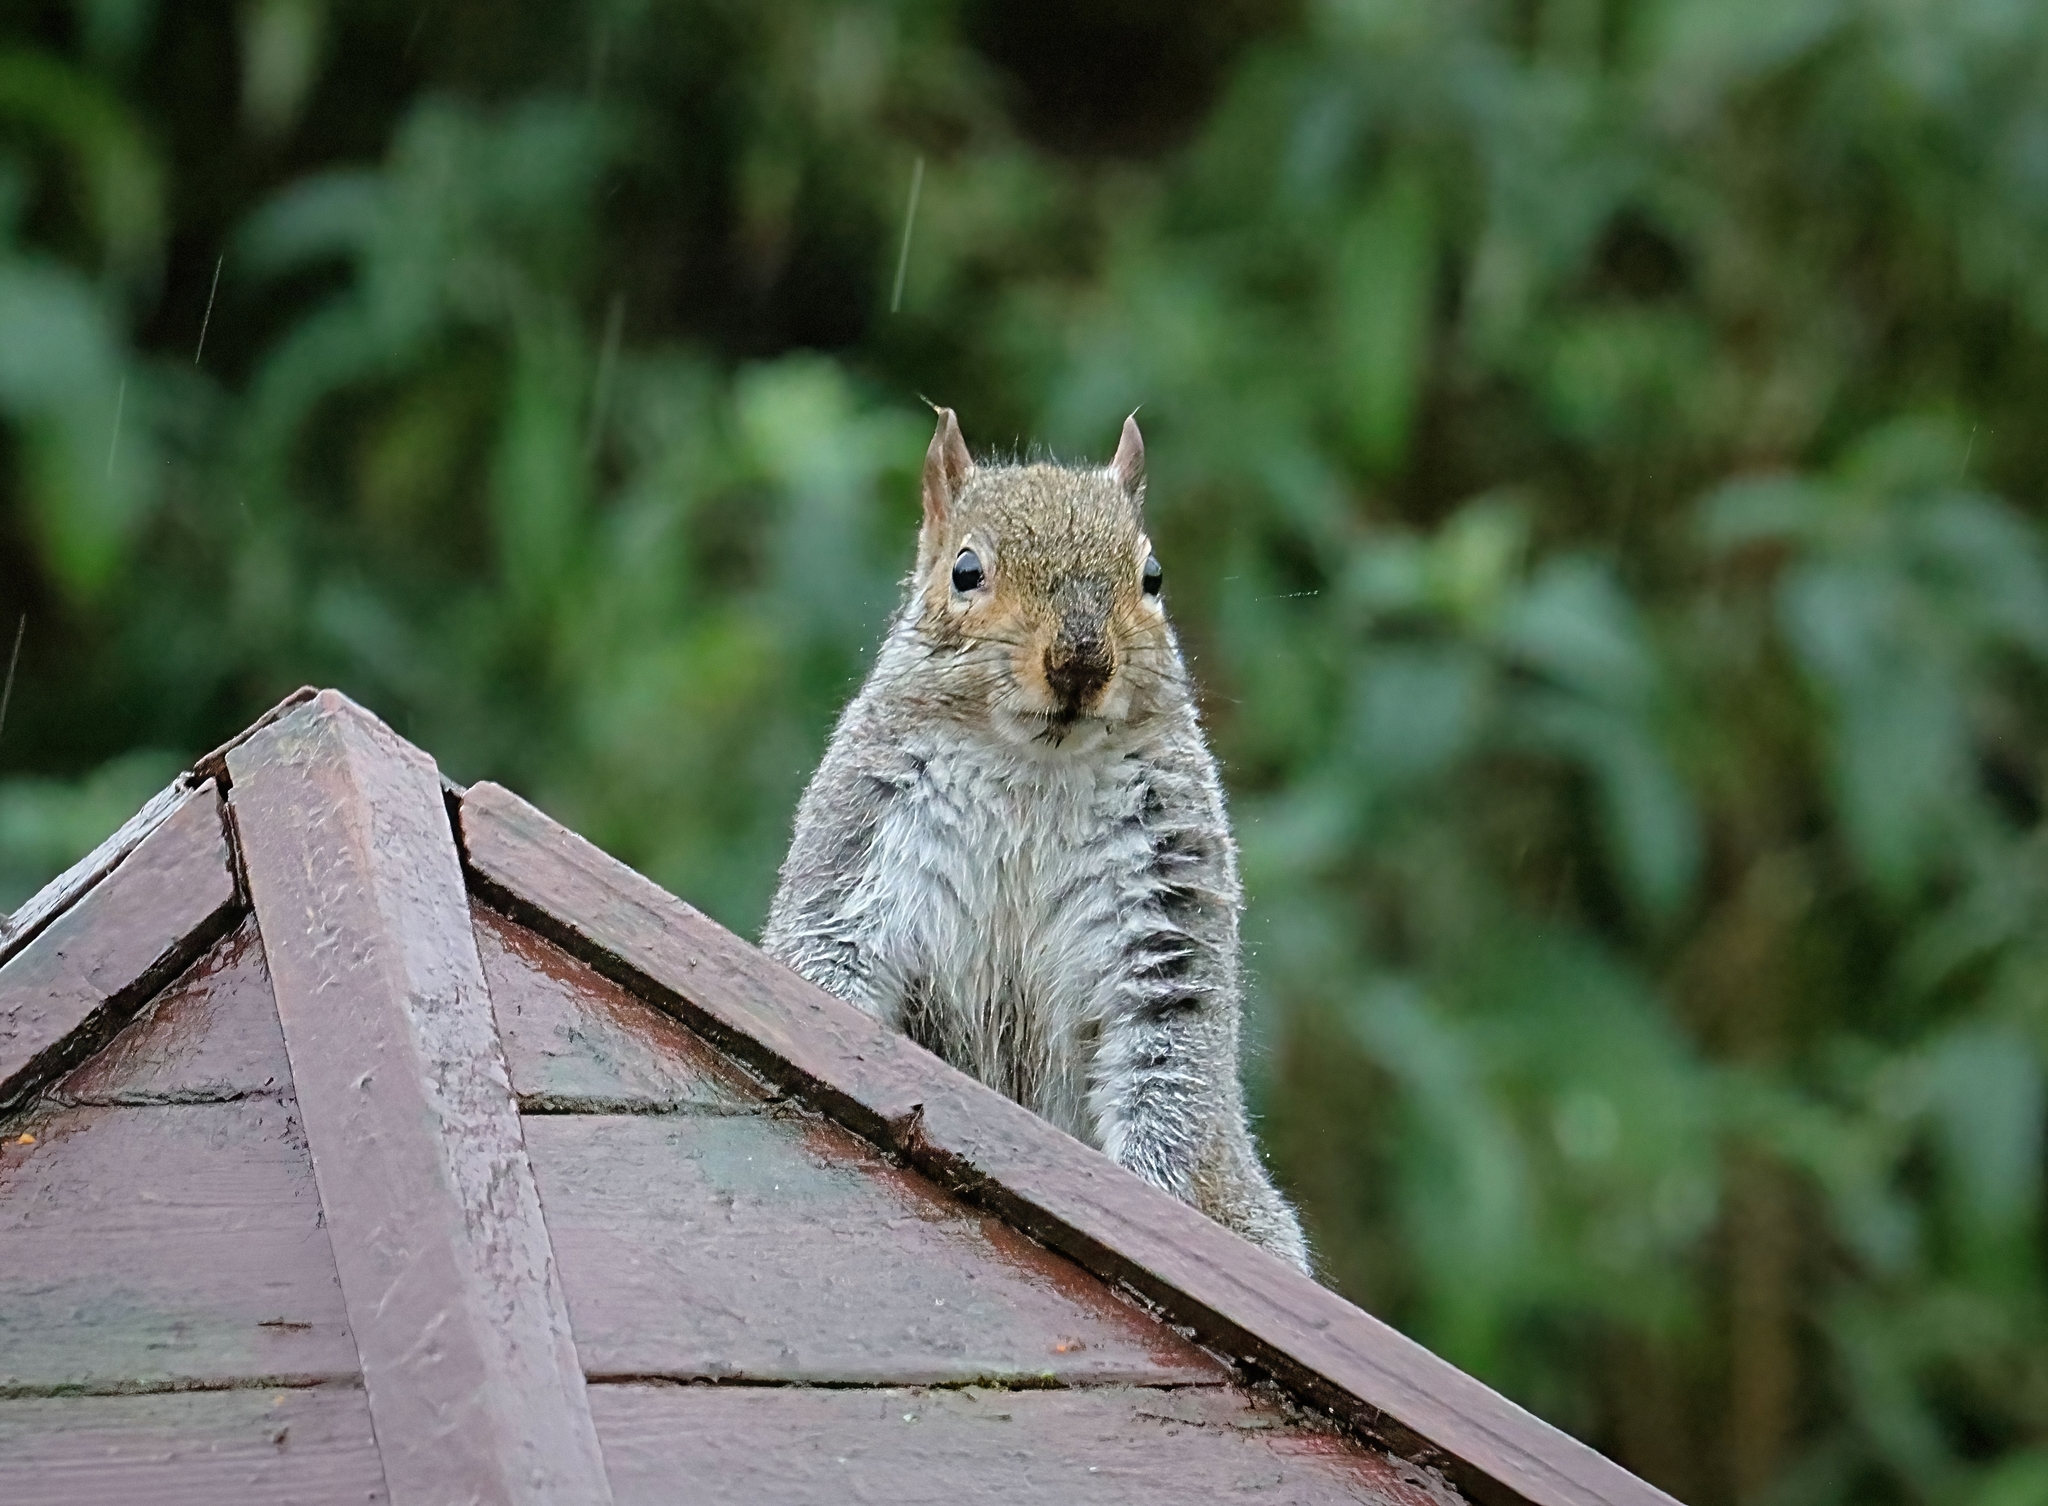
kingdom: Animalia
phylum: Chordata
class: Mammalia
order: Rodentia
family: Sciuridae
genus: Sciurus
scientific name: Sciurus carolinensis
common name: Eastern gray squirrel
